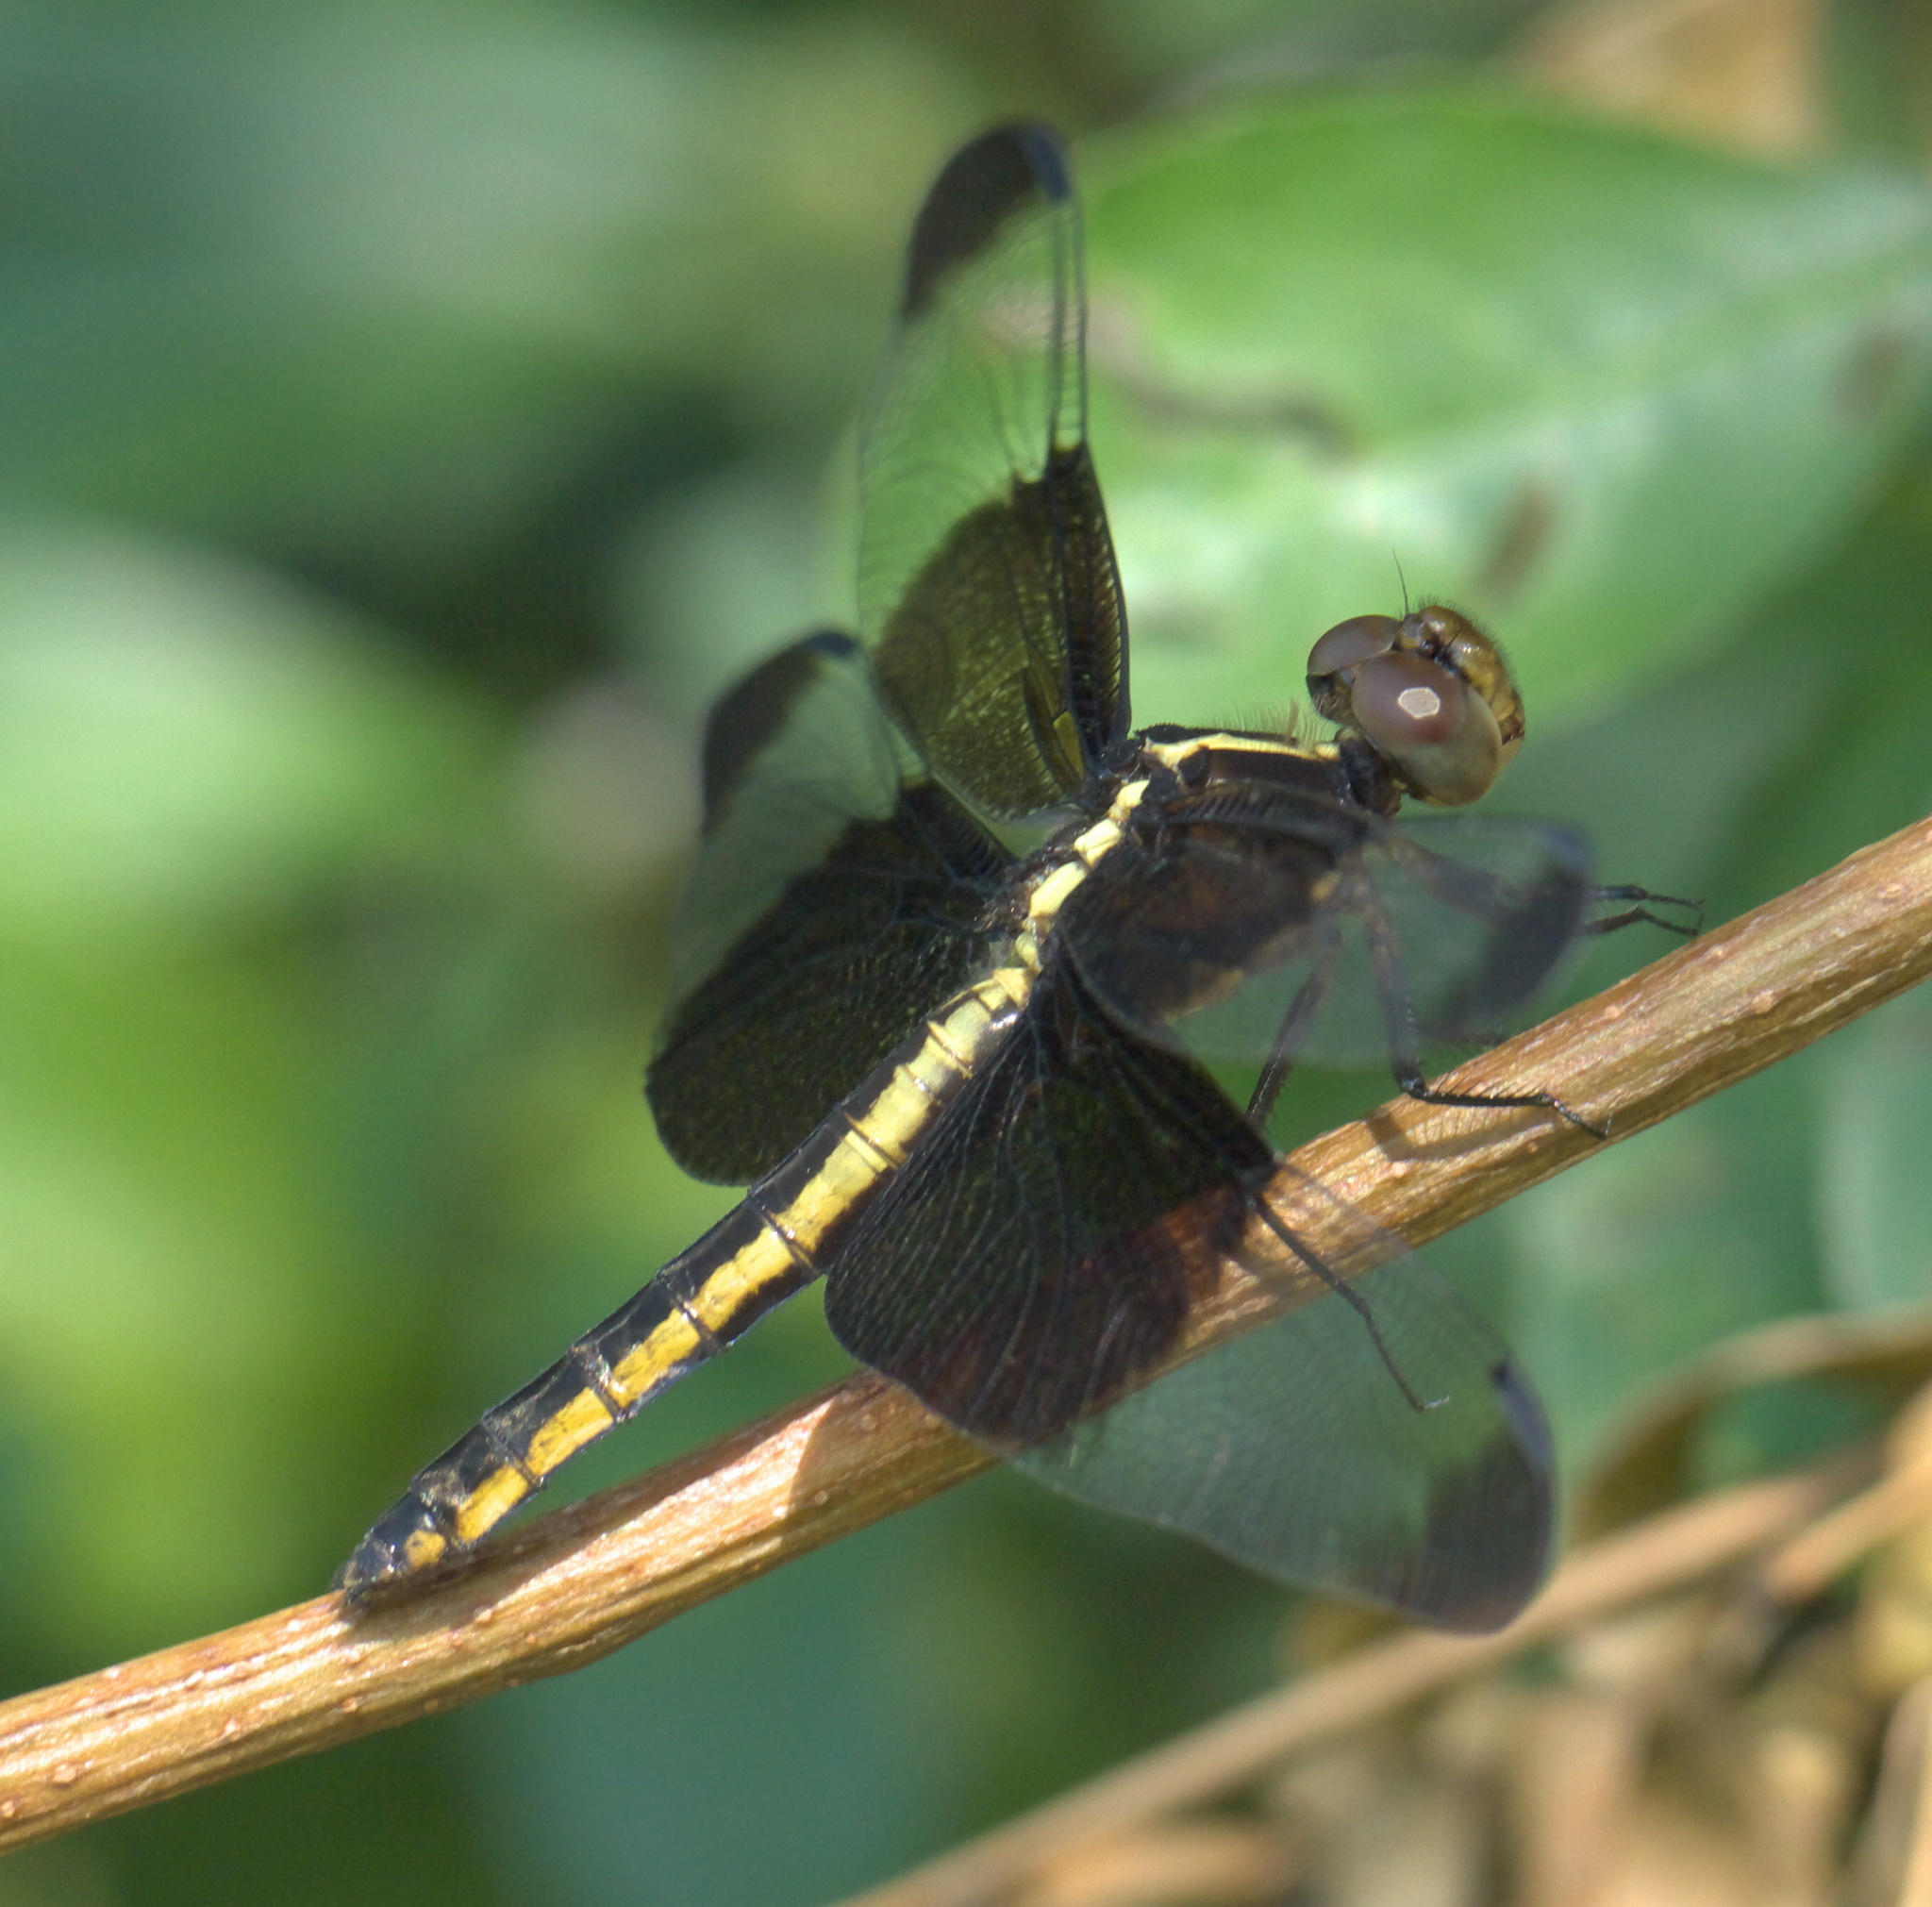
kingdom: Animalia
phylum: Arthropoda
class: Insecta
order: Odonata
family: Libellulidae
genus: Libellula
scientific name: Libellula luctuosa
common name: Widow skimmer
